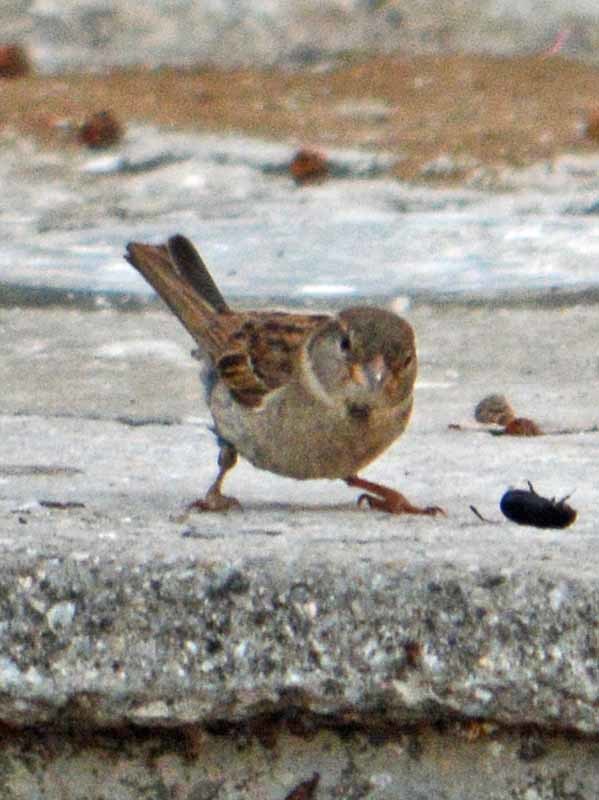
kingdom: Animalia
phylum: Chordata
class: Aves
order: Passeriformes
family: Passeridae
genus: Passer
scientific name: Passer domesticus
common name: House sparrow
